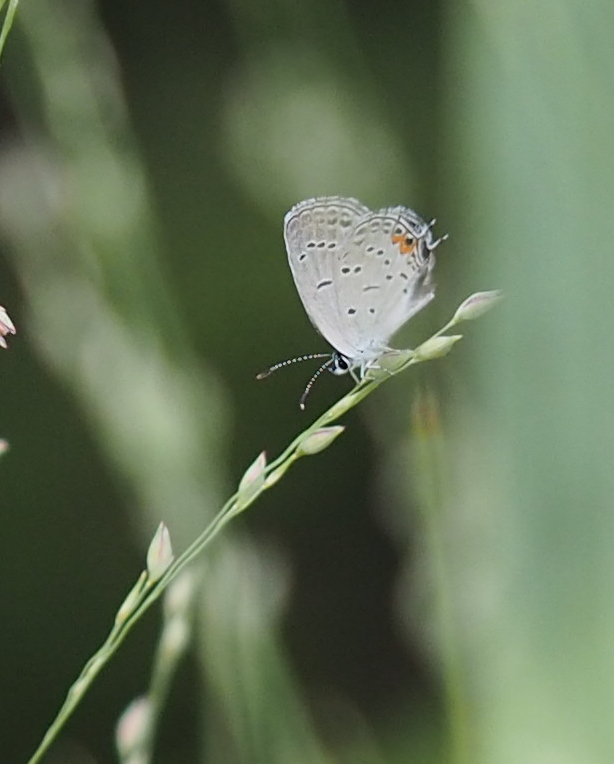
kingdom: Animalia
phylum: Arthropoda
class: Insecta
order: Lepidoptera
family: Lycaenidae
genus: Elkalyce
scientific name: Elkalyce comyntas
